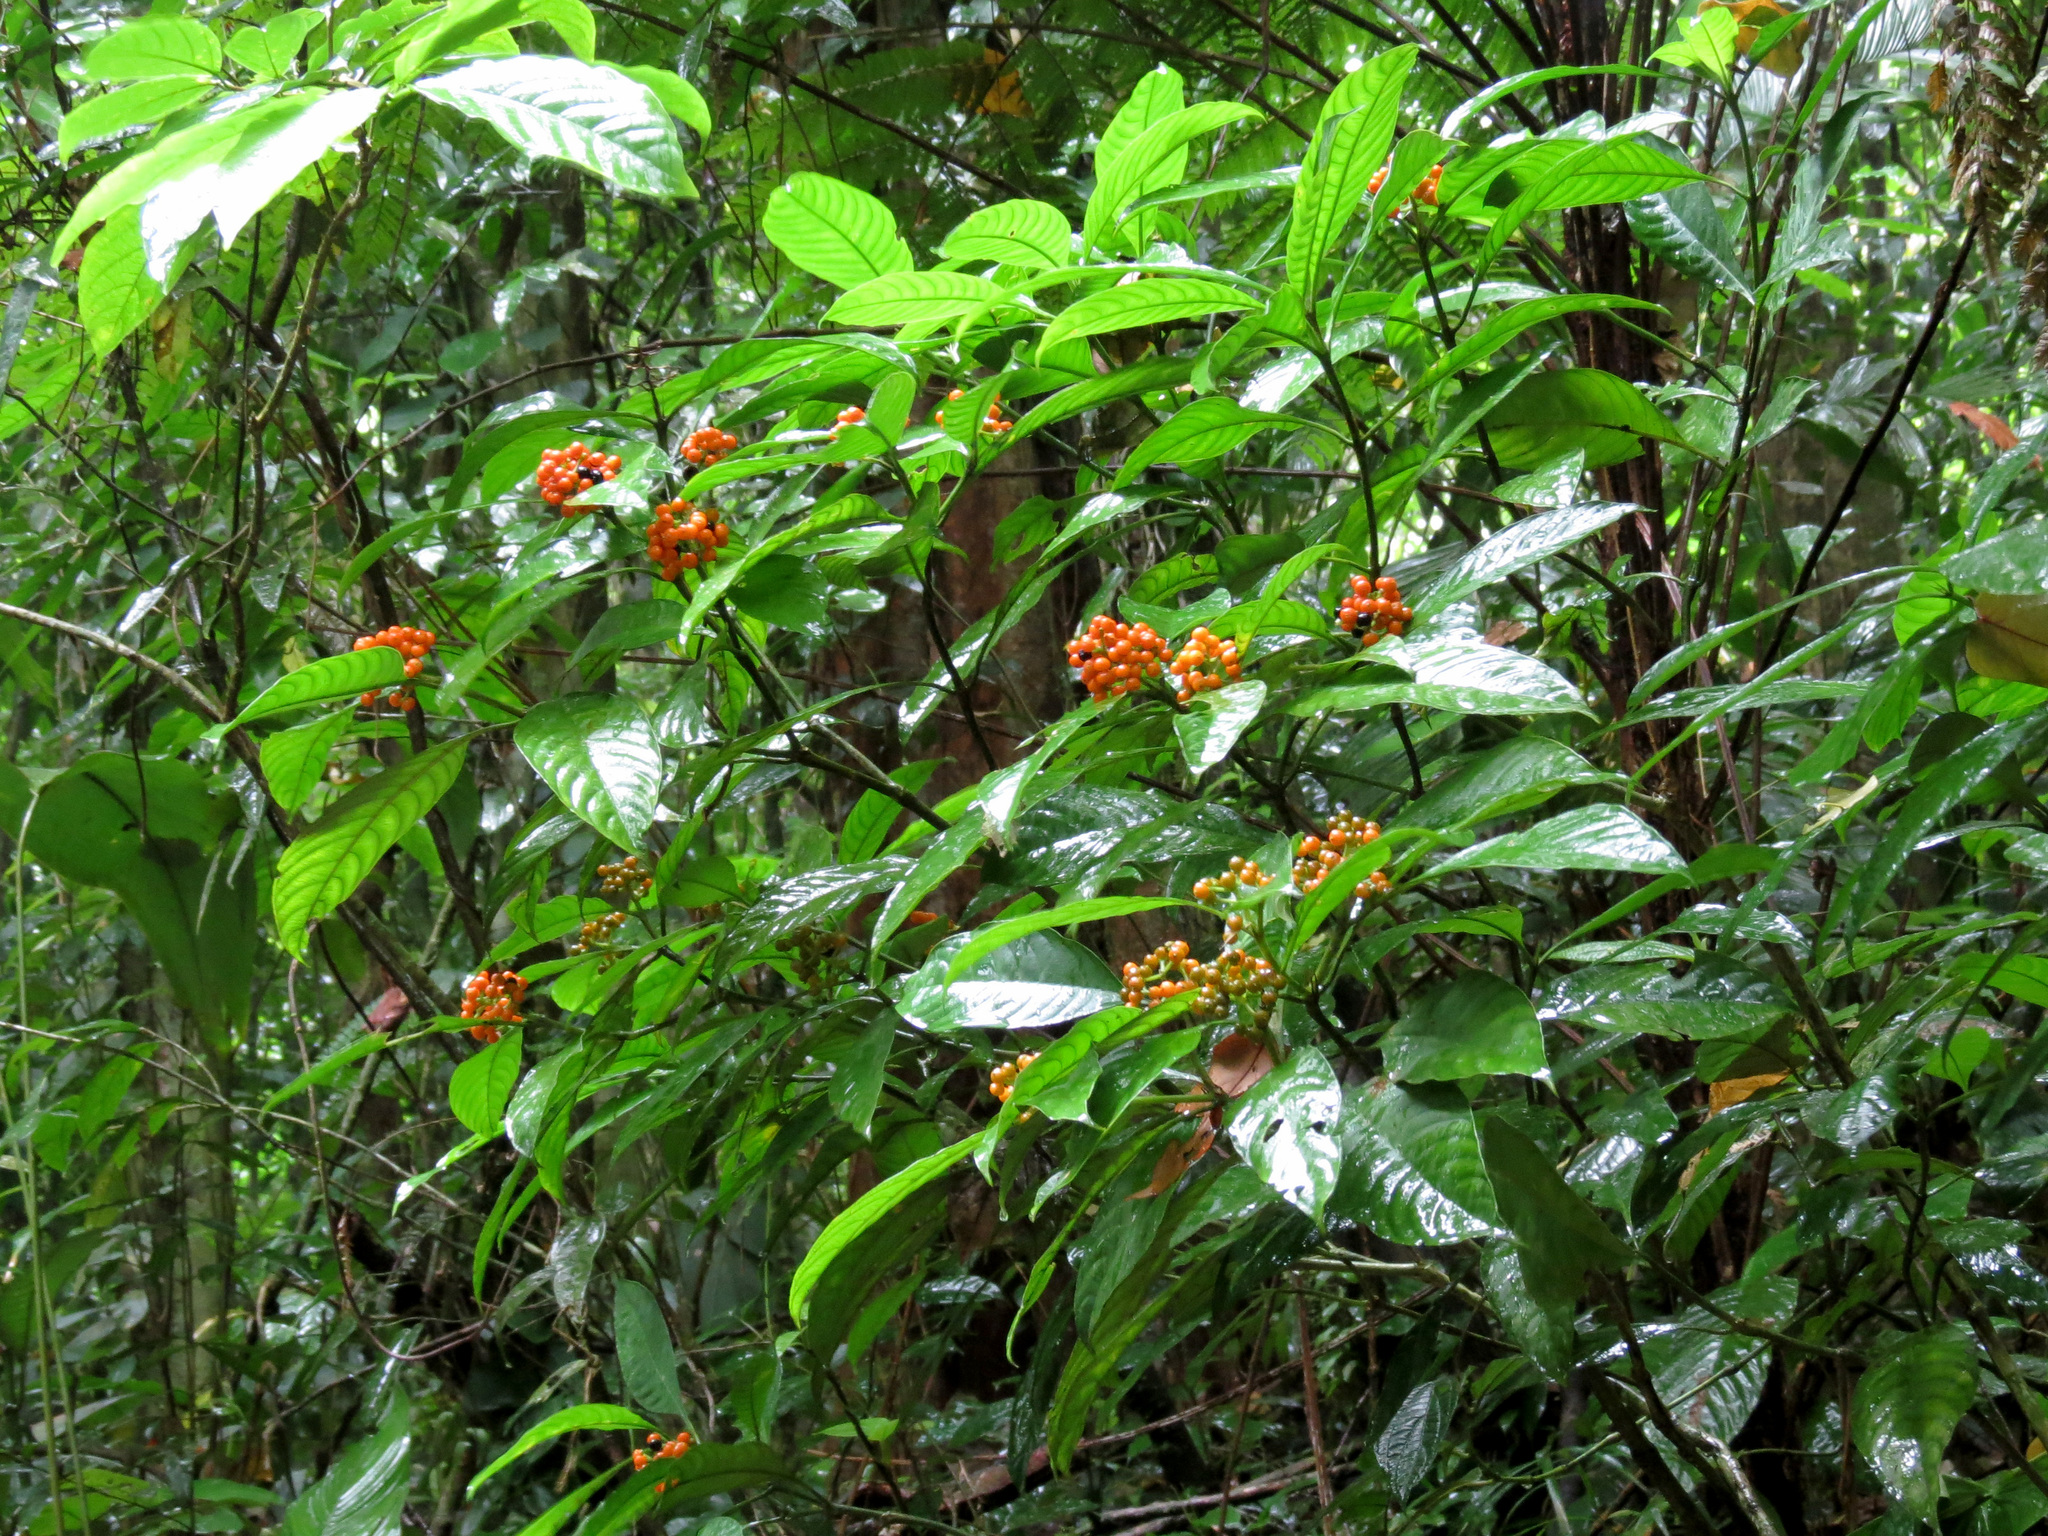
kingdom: Plantae
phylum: Tracheophyta
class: Magnoliopsida
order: Gentianales
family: Rubiaceae
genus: Palicourea
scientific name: Palicourea racemosa
